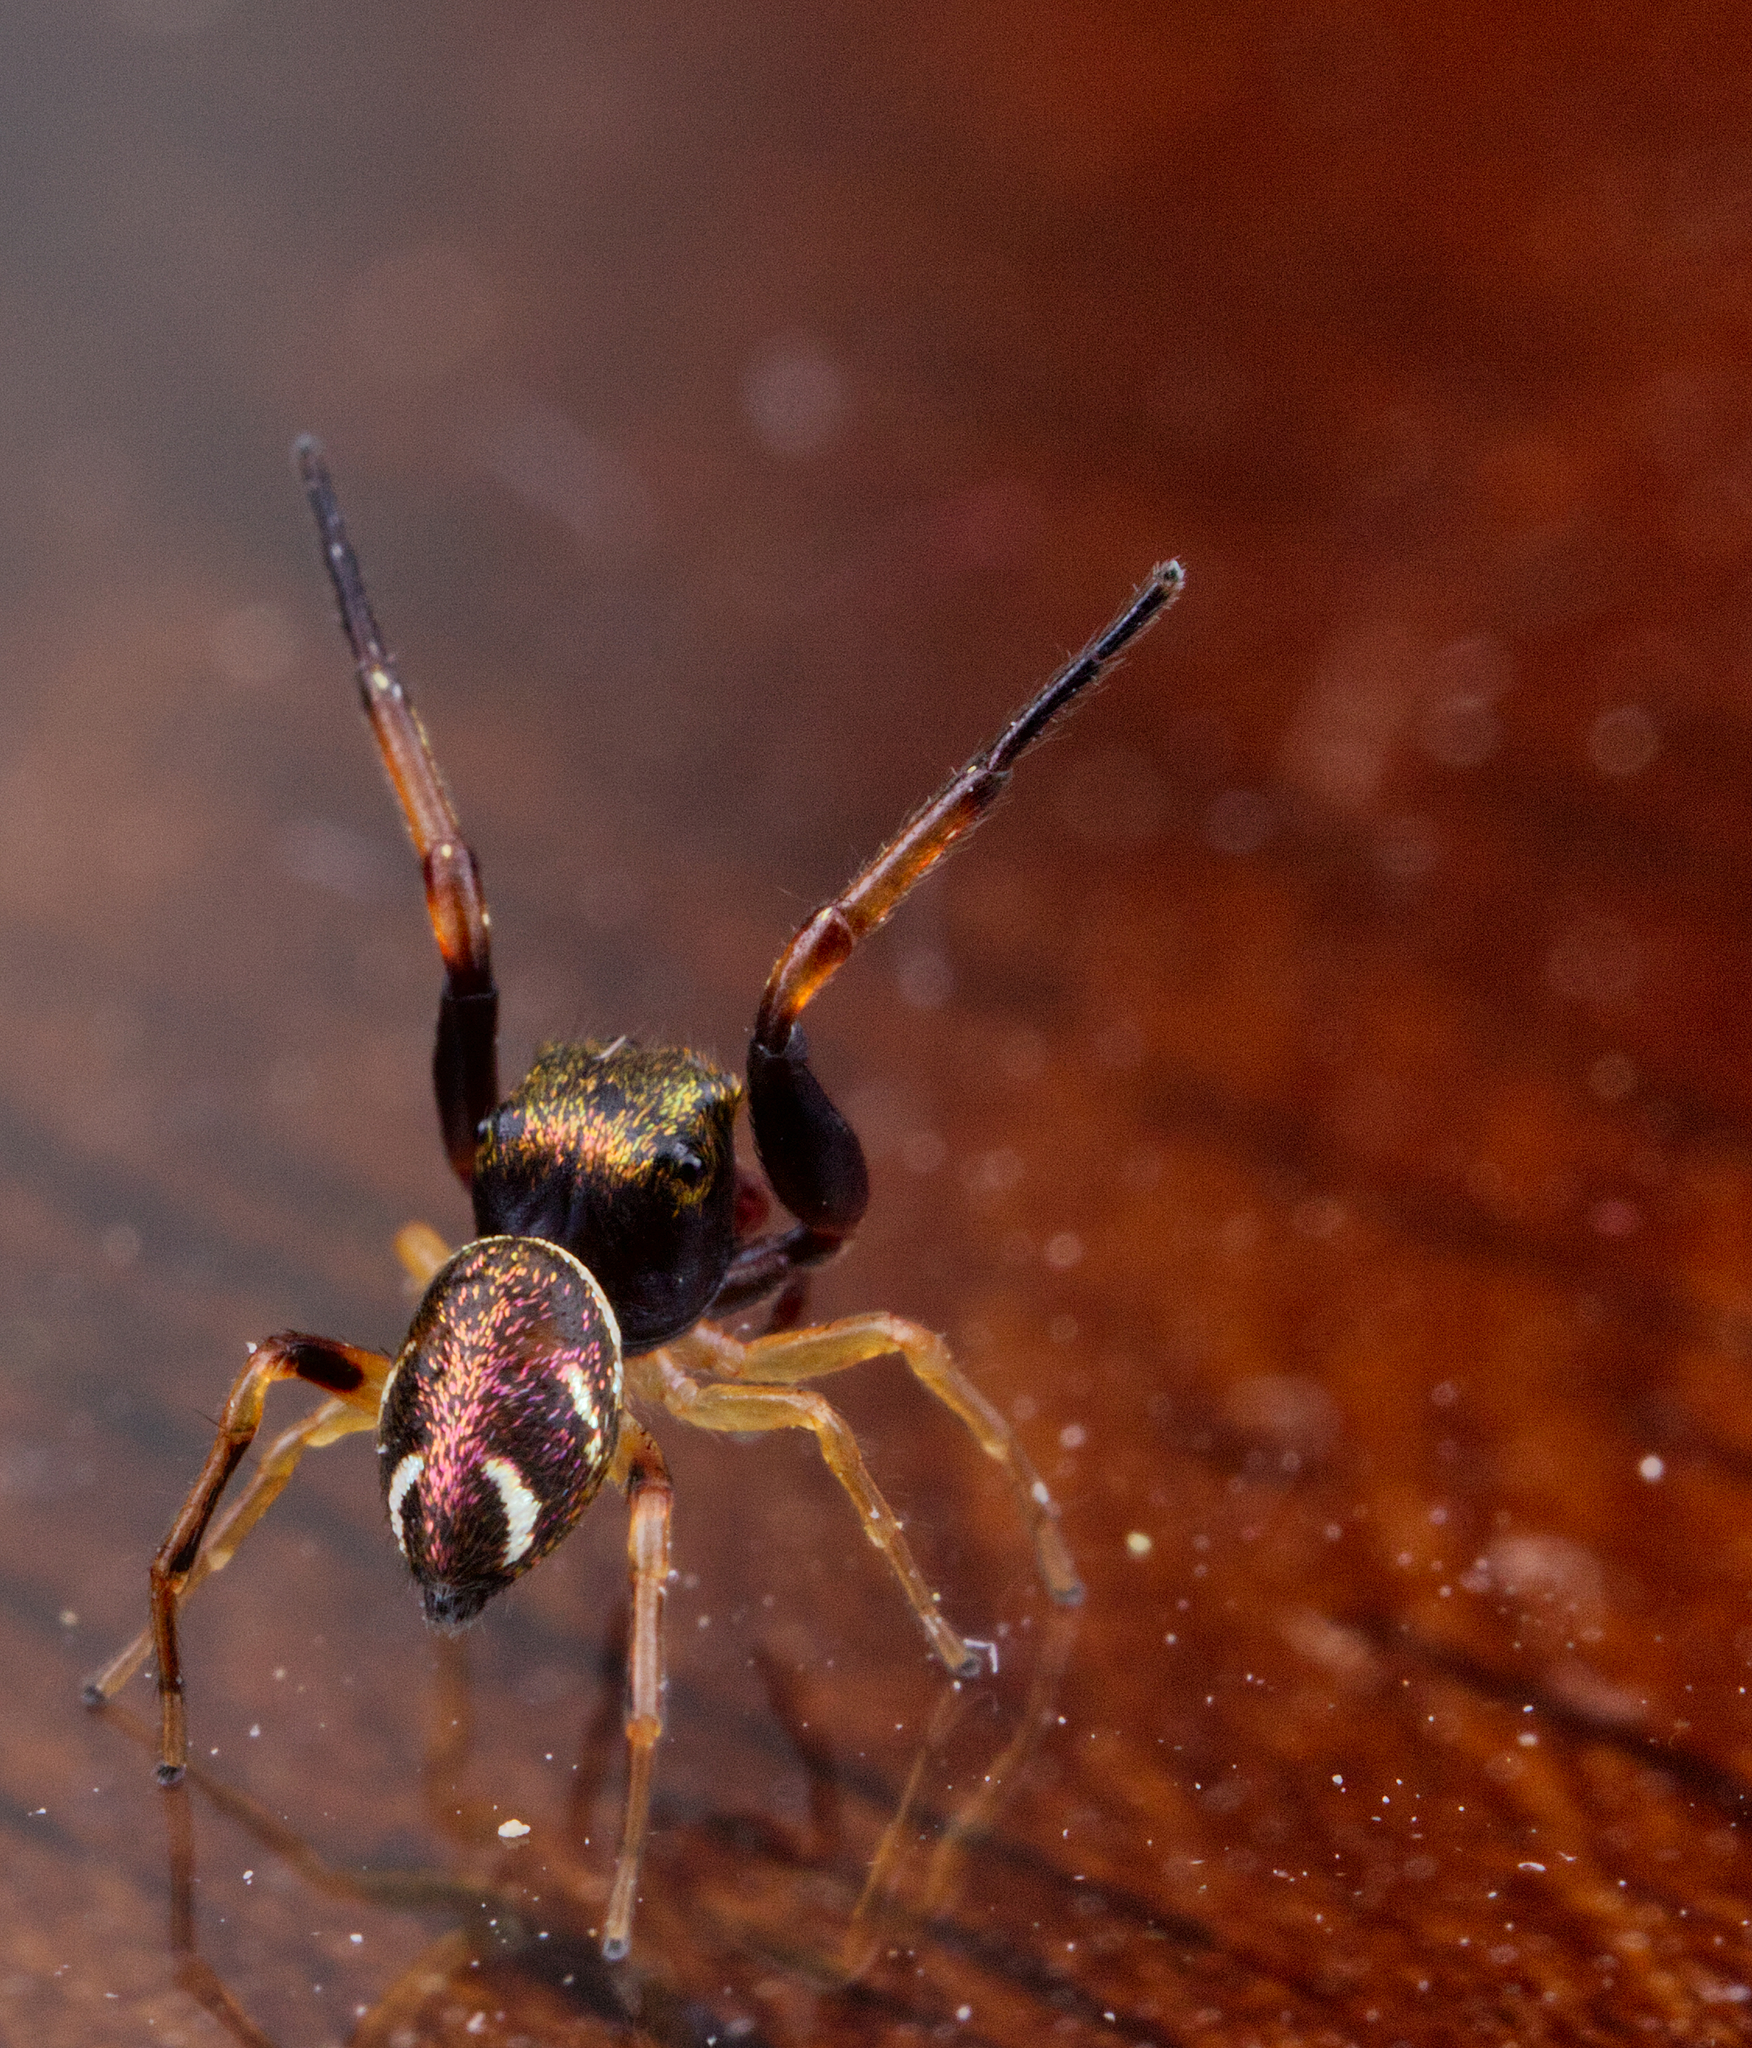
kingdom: Animalia
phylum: Arthropoda
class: Arachnida
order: Araneae
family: Salticidae
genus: Zygoballus
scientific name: Zygoballus rufipes
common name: Jumping spiders
